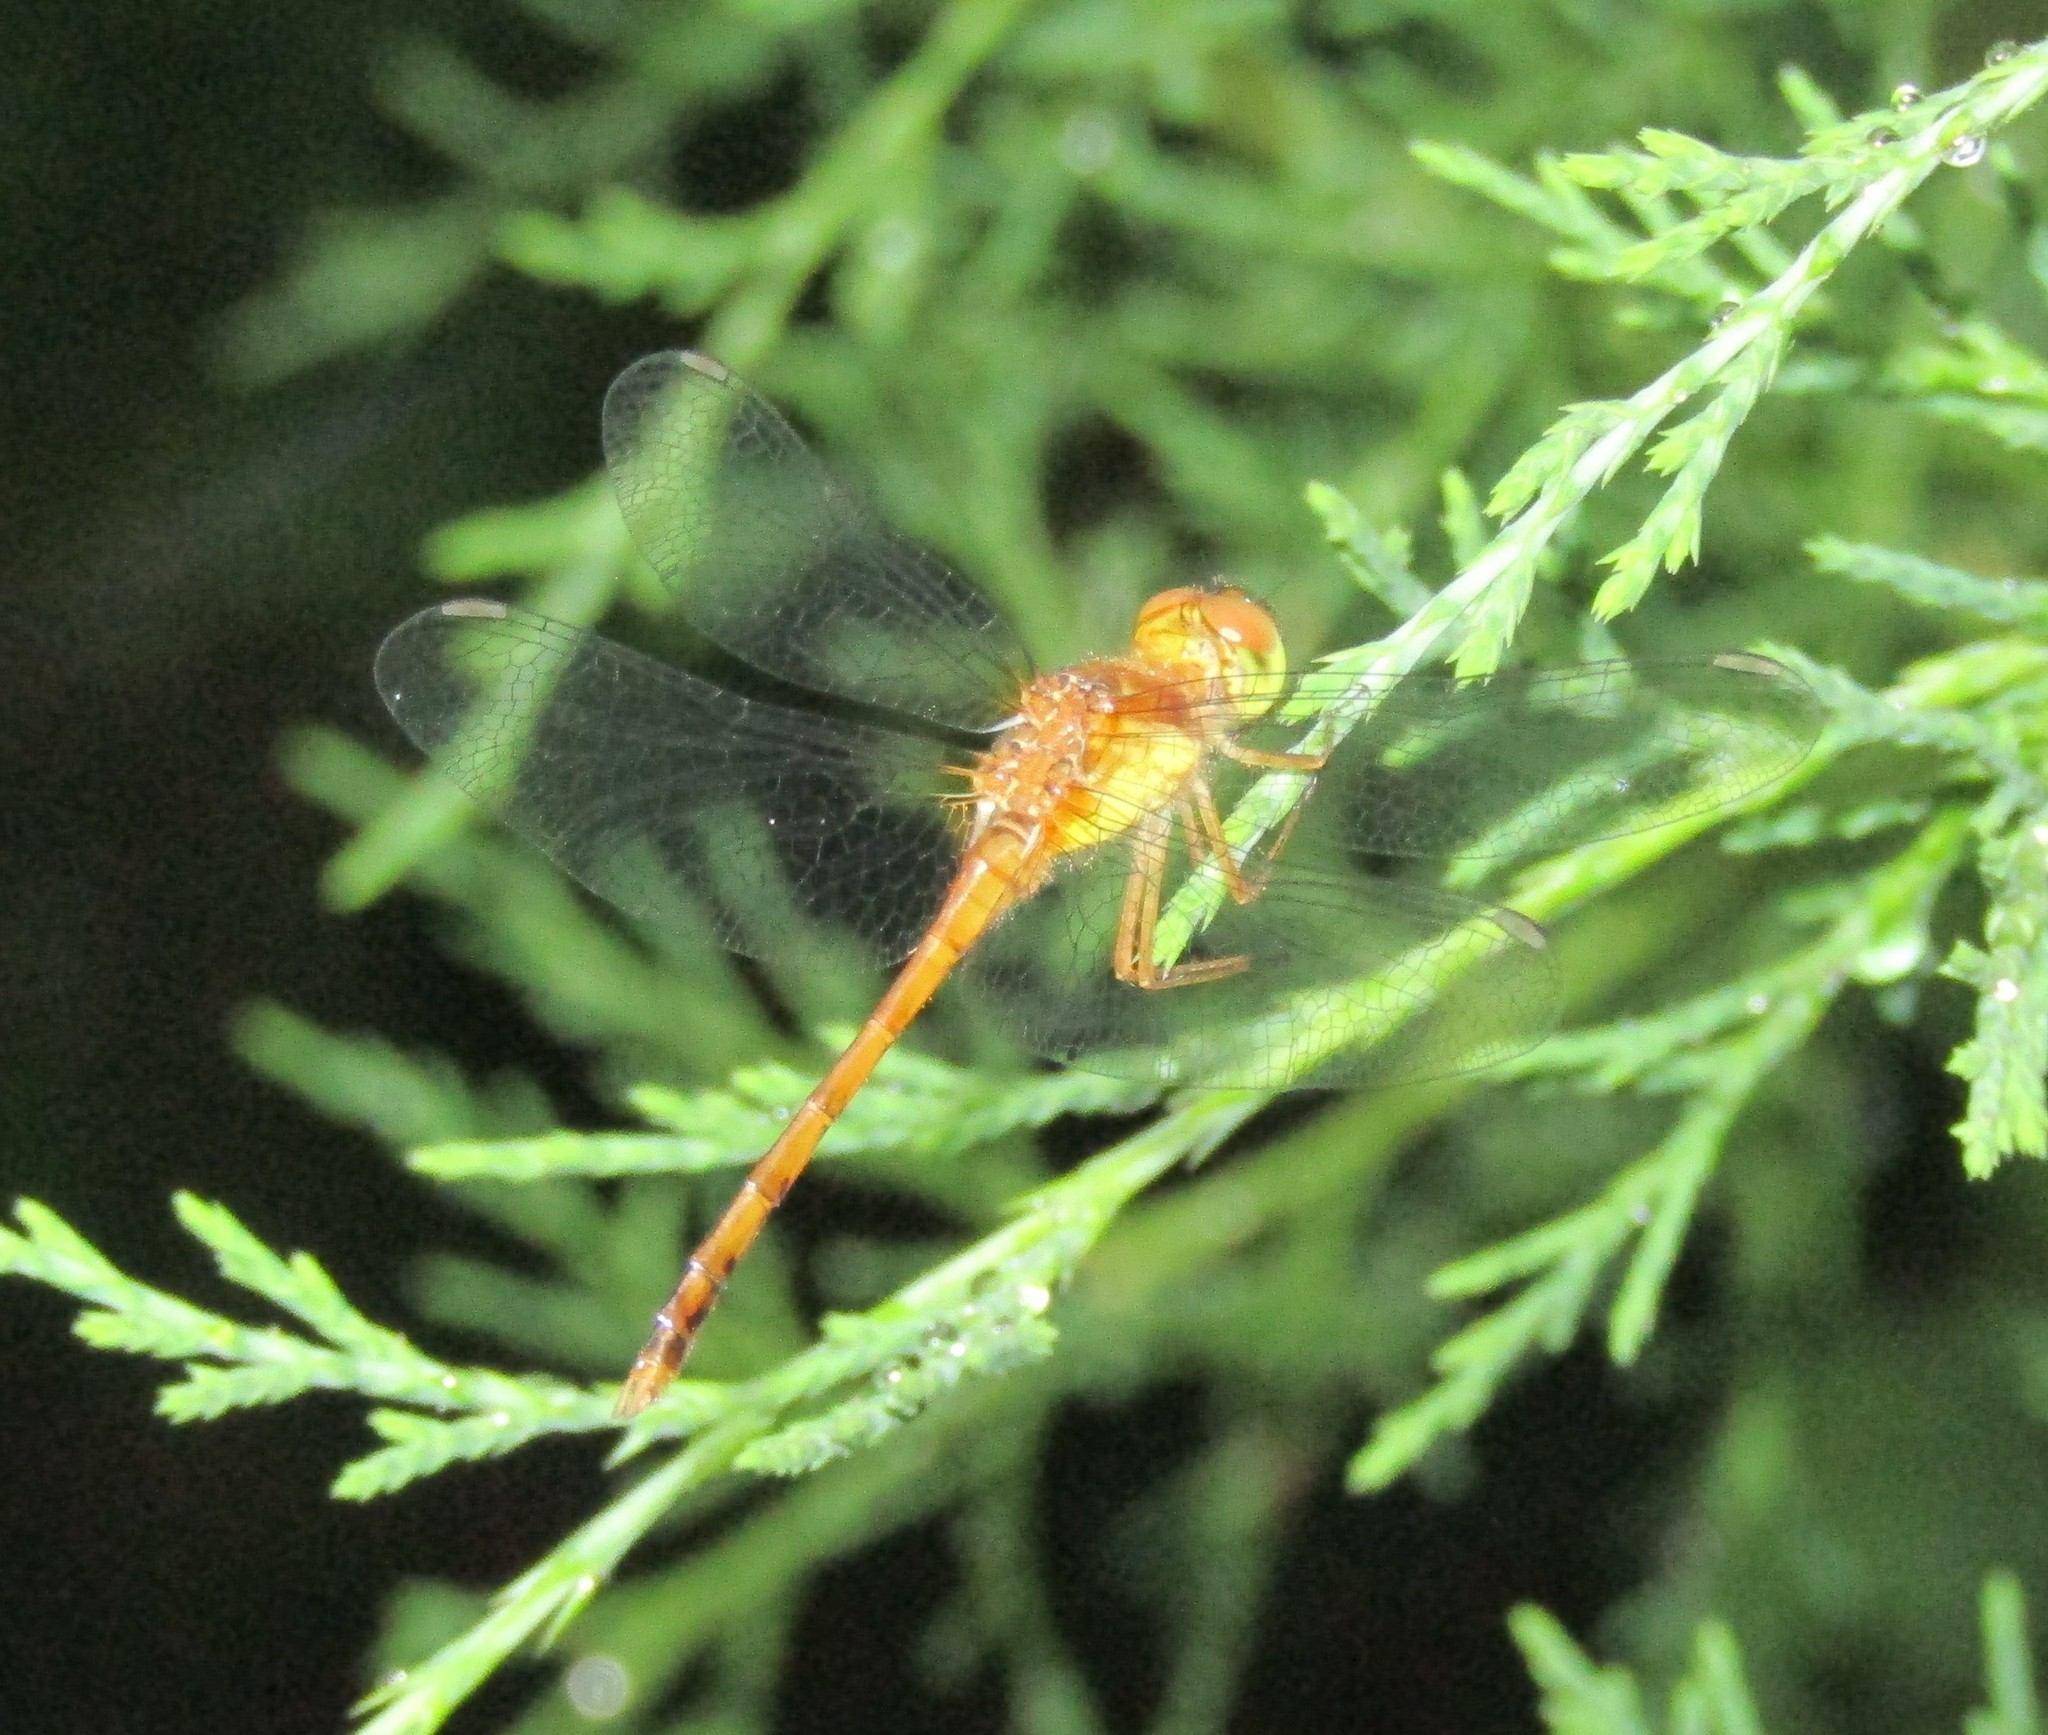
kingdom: Animalia
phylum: Arthropoda
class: Insecta
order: Odonata
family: Libellulidae
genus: Sympetrum
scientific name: Sympetrum vicinum
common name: Autumn meadowhawk
